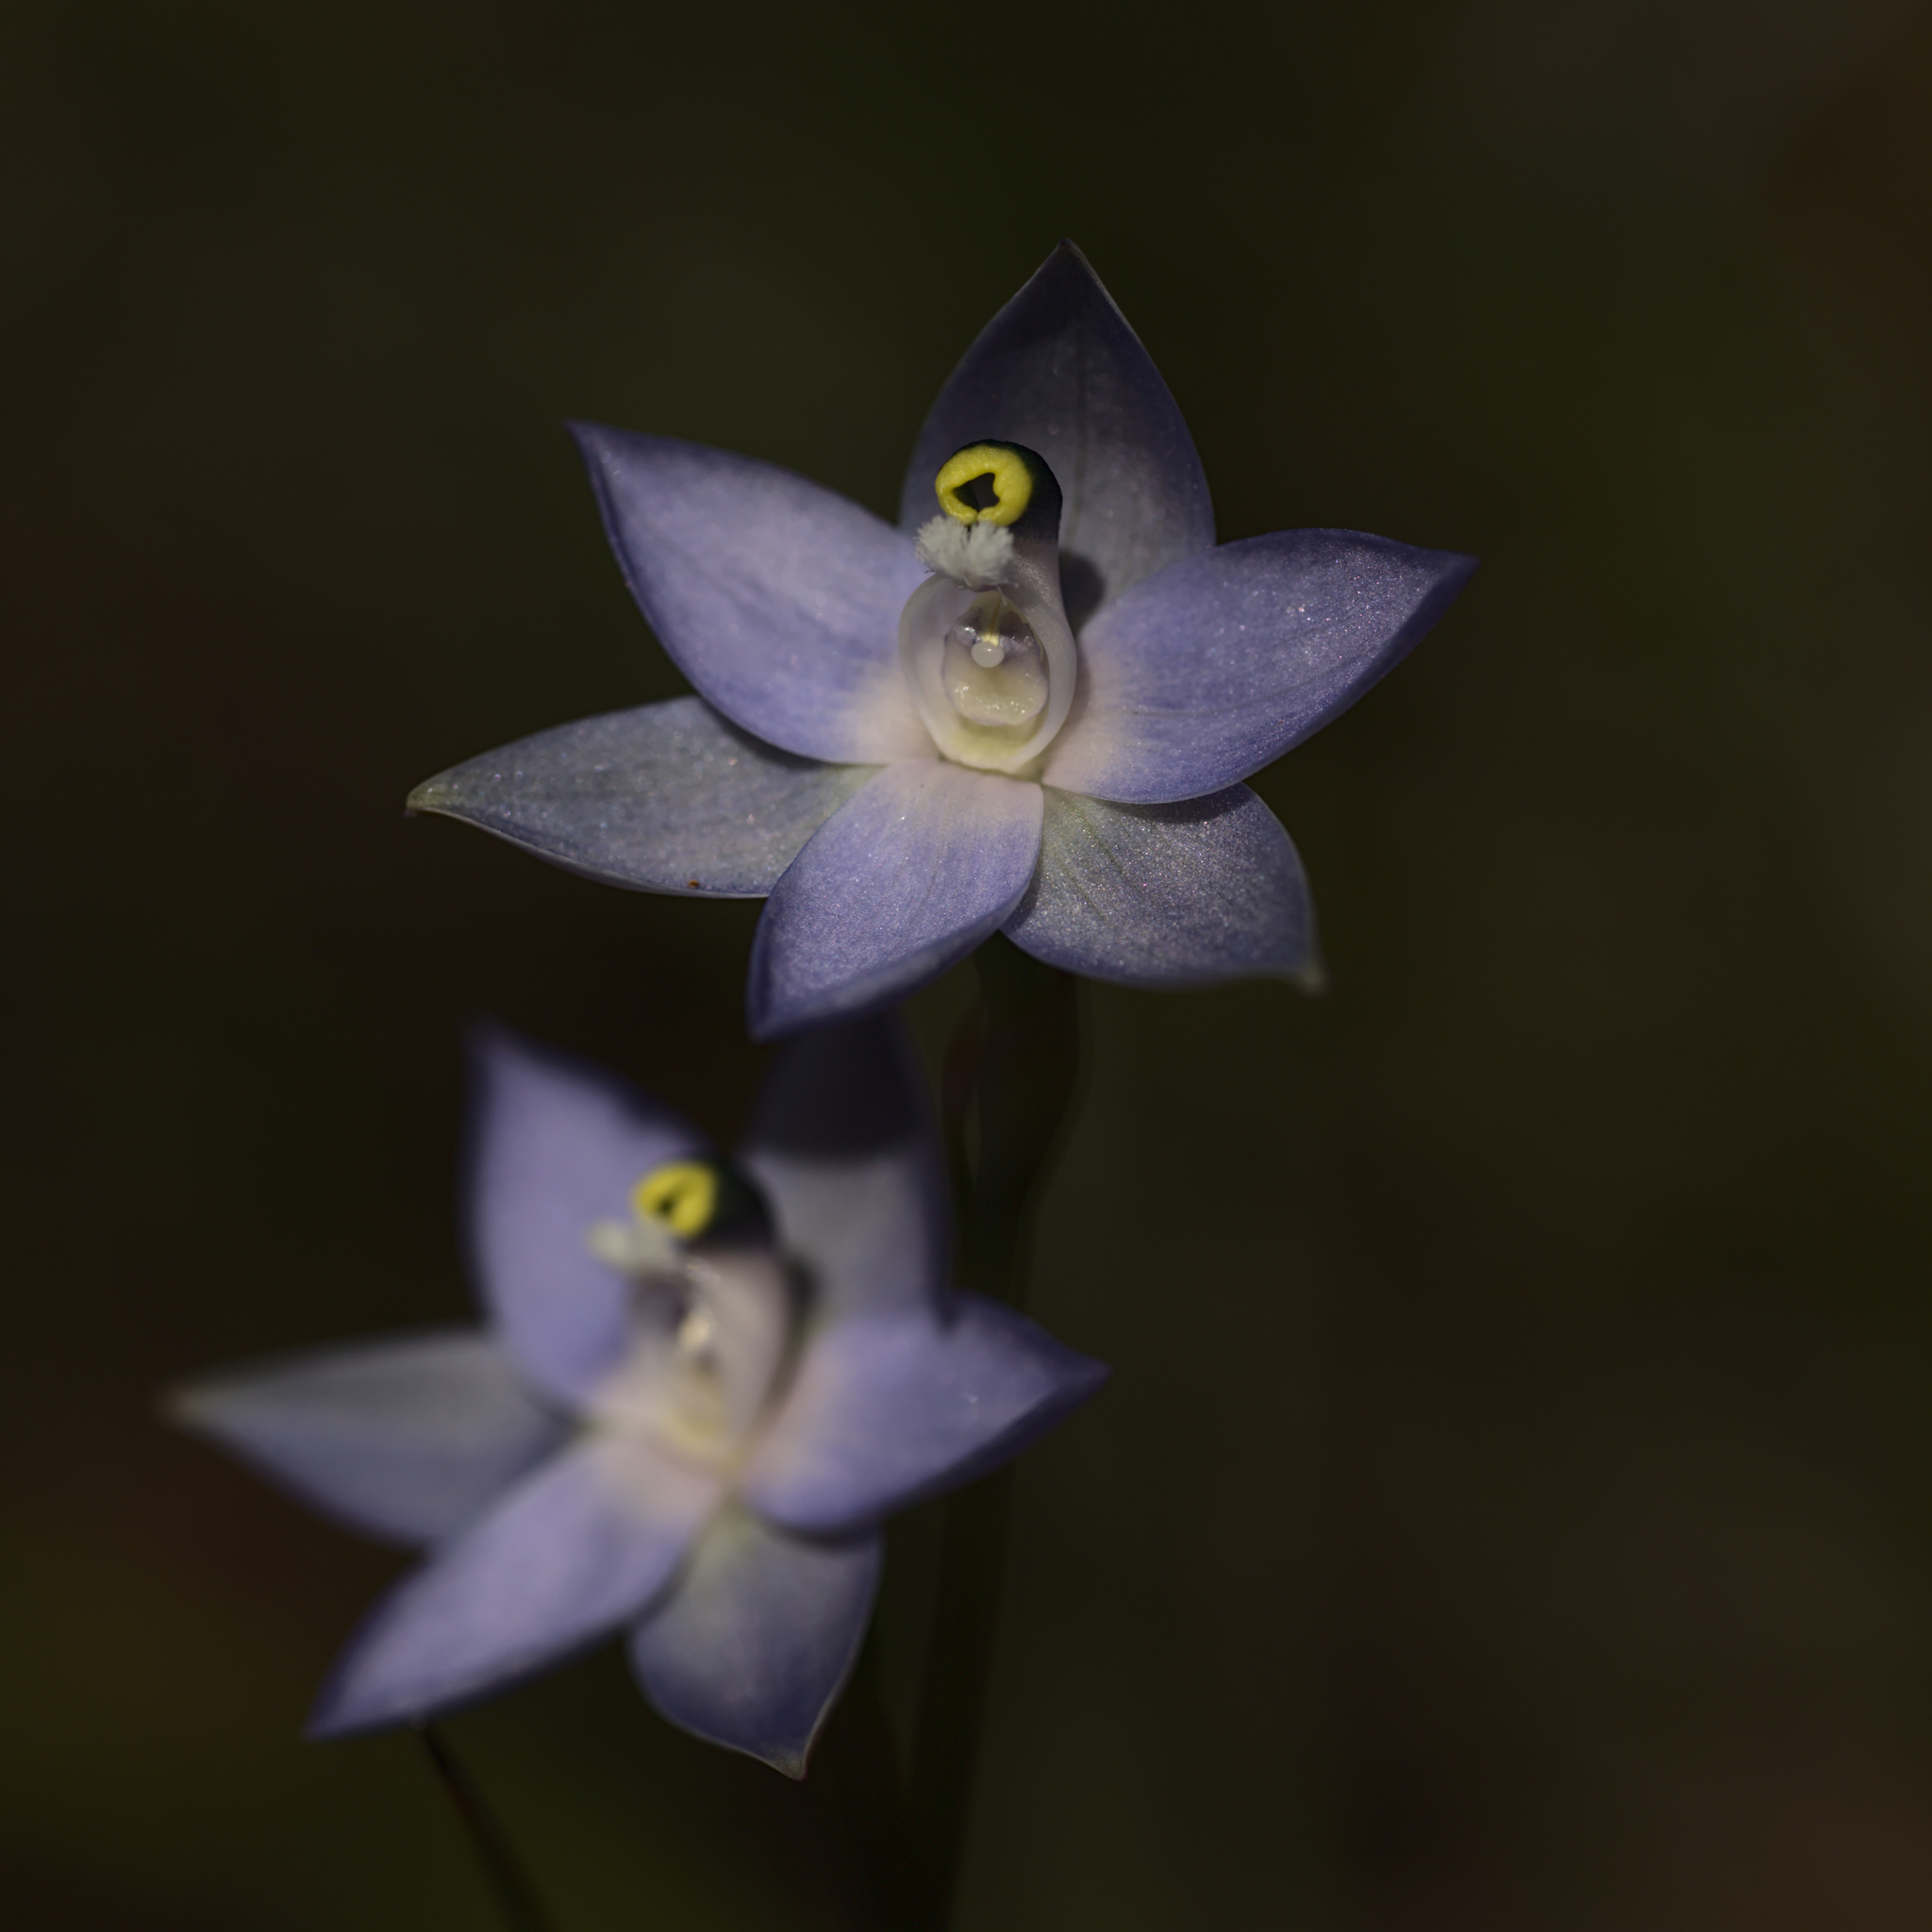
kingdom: Plantae
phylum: Tracheophyta
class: Liliopsida
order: Asparagales
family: Orchidaceae
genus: Thelymitra
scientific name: Thelymitra graminea
